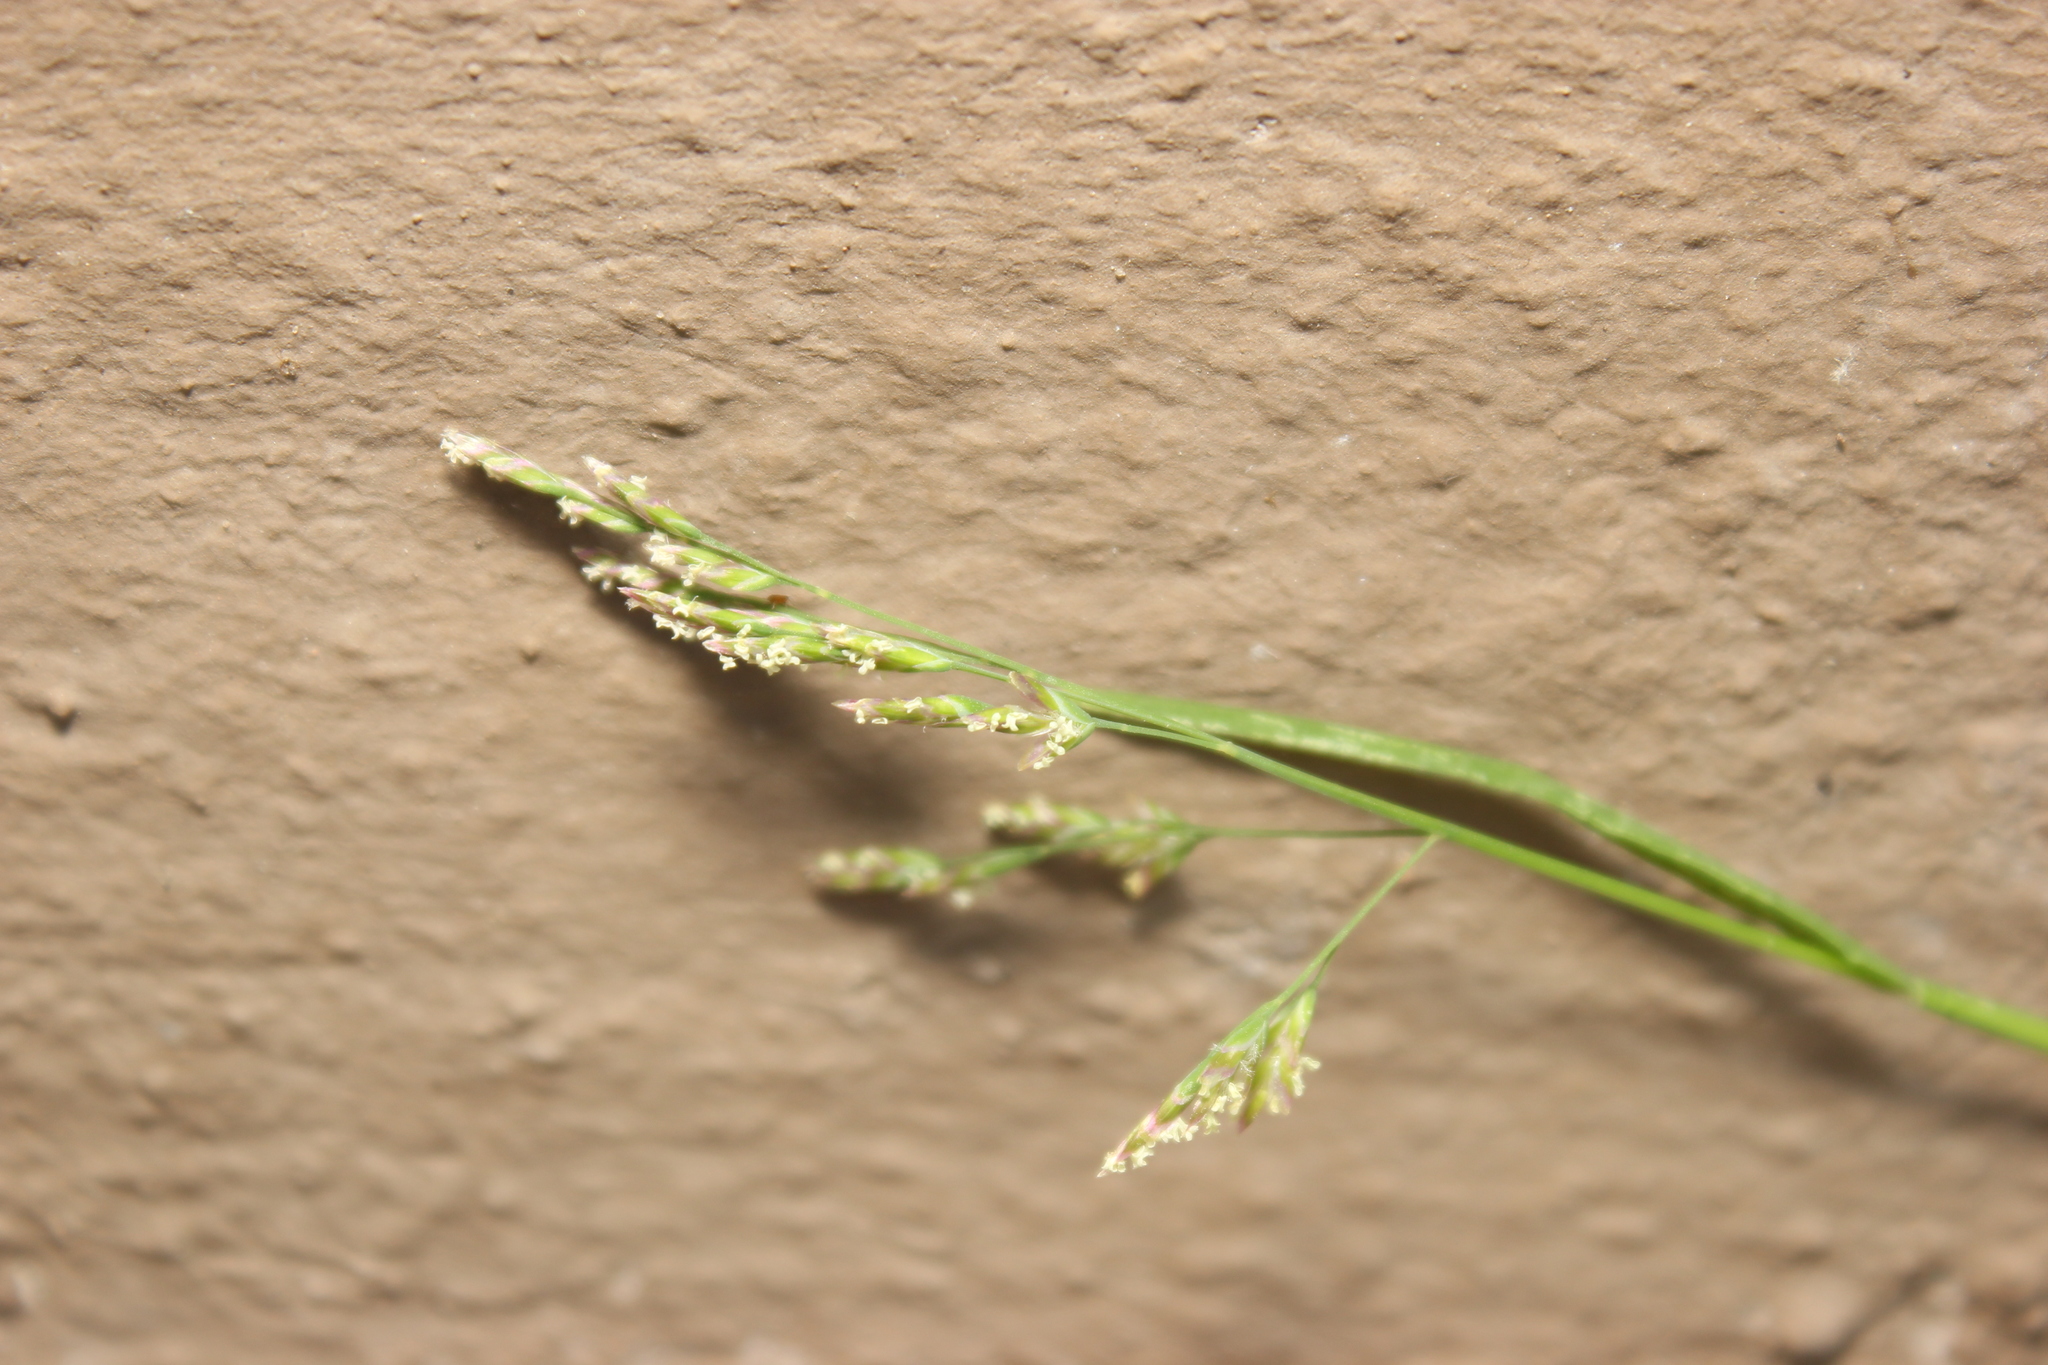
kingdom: Plantae
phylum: Tracheophyta
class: Liliopsida
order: Poales
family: Poaceae
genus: Poa
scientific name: Poa annua
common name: Annual bluegrass
